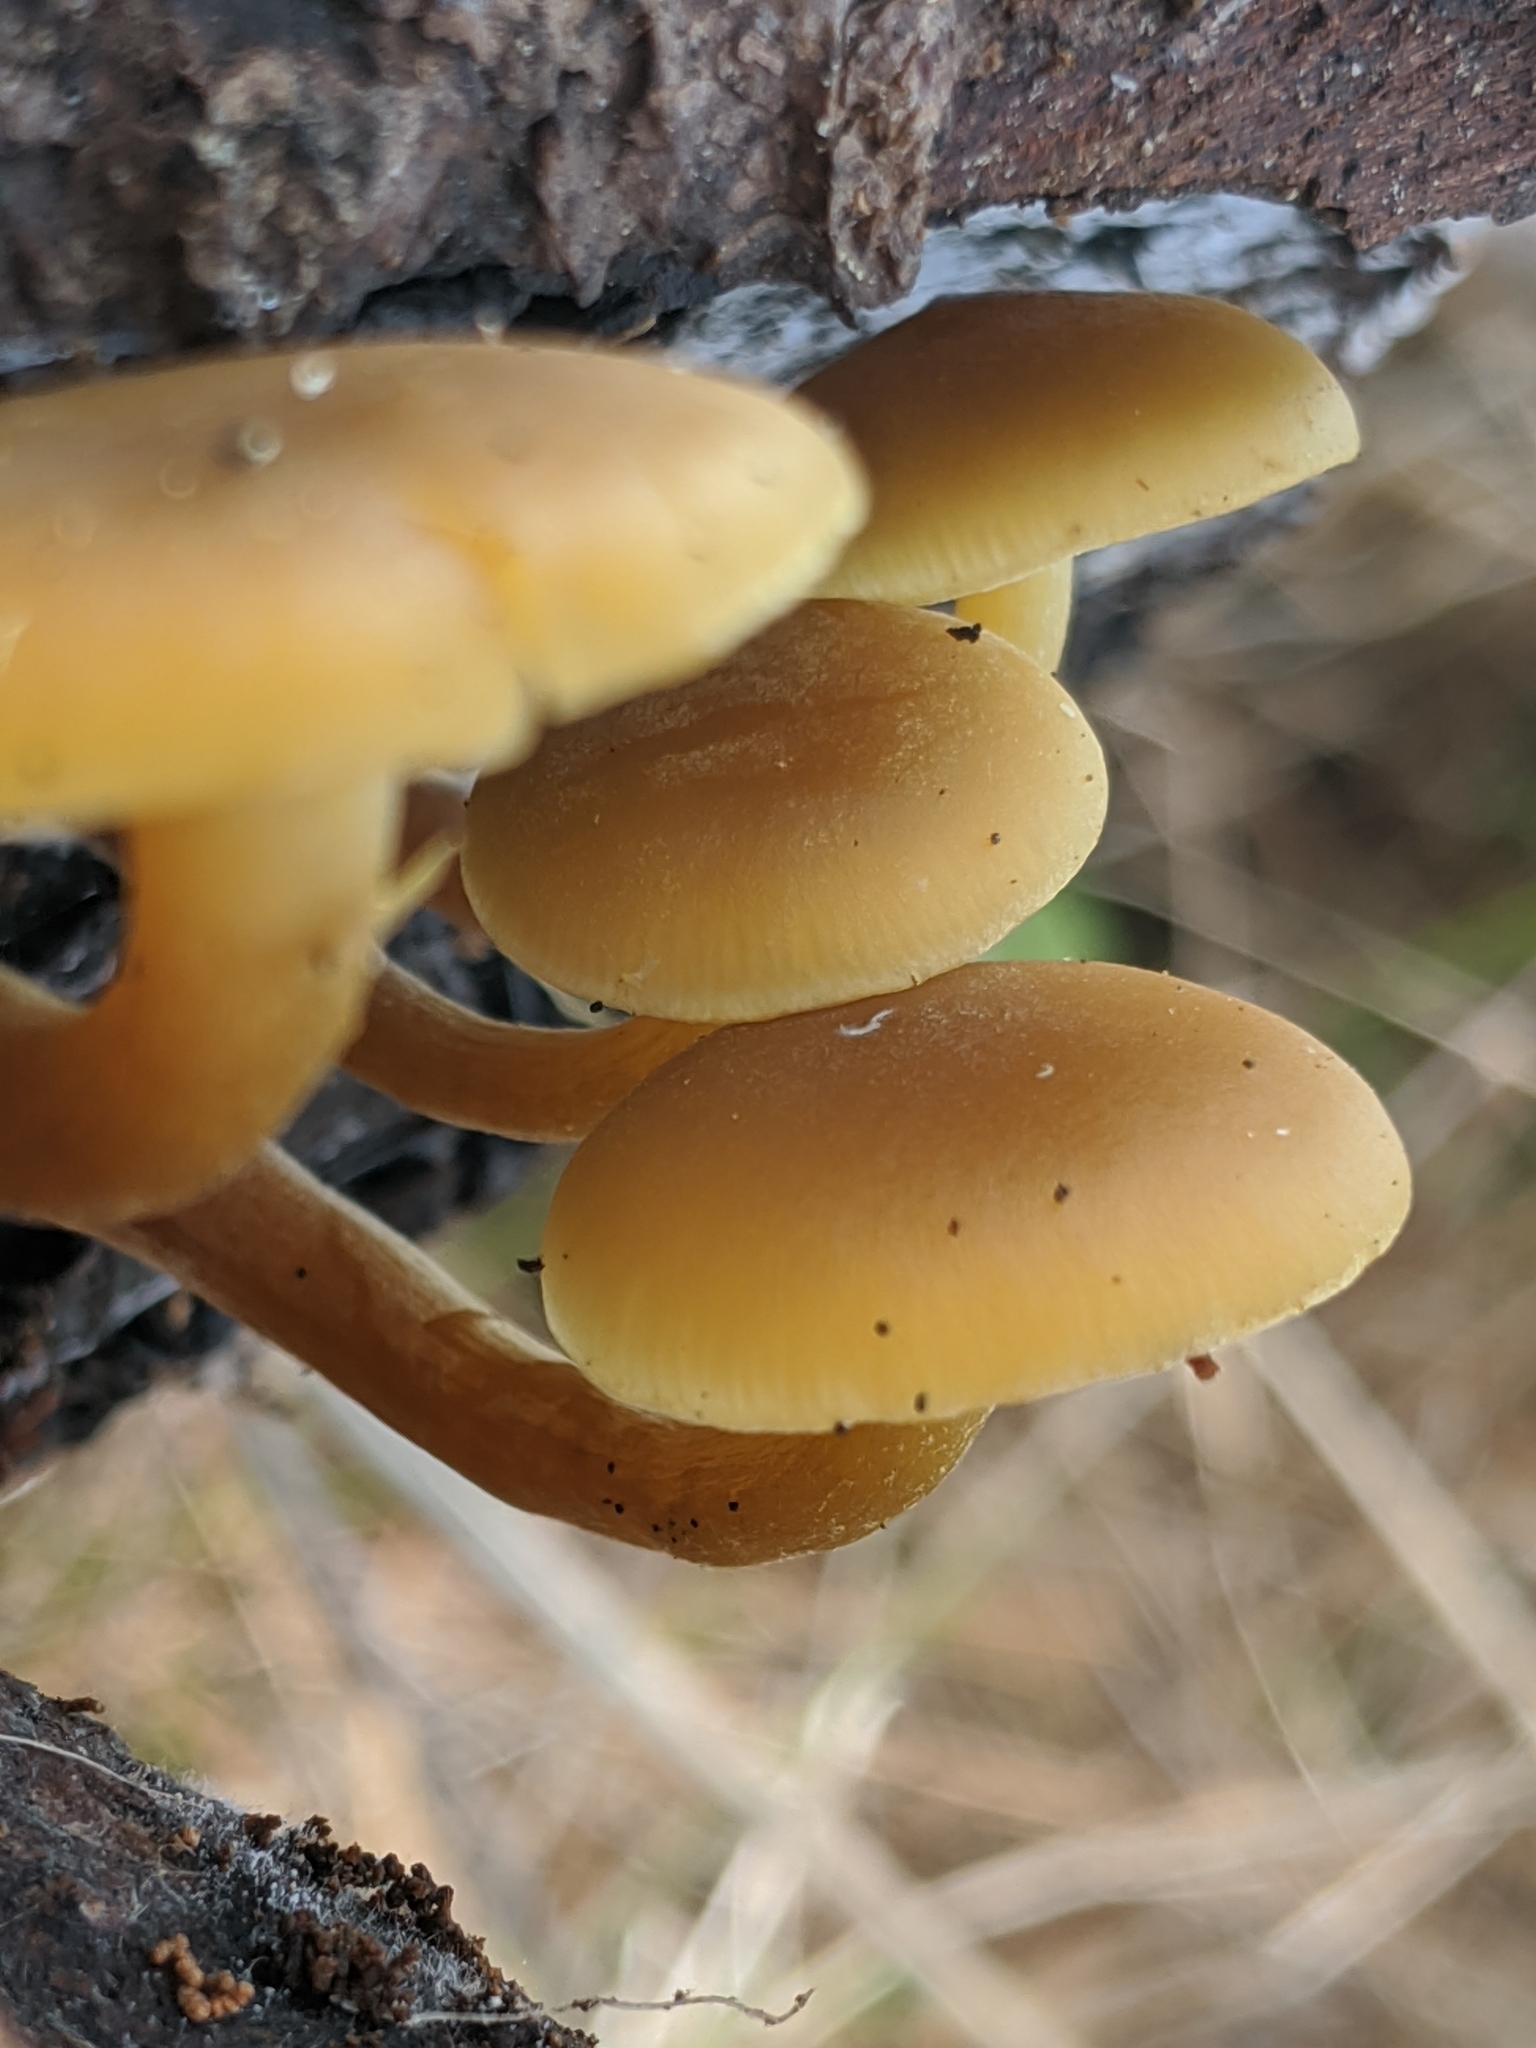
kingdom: Fungi
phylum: Basidiomycota
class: Agaricomycetes
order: Agaricales
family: Callistosporiaceae
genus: Callistosporium
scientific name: Callistosporium luteo-olivaceum
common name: Olive lute
